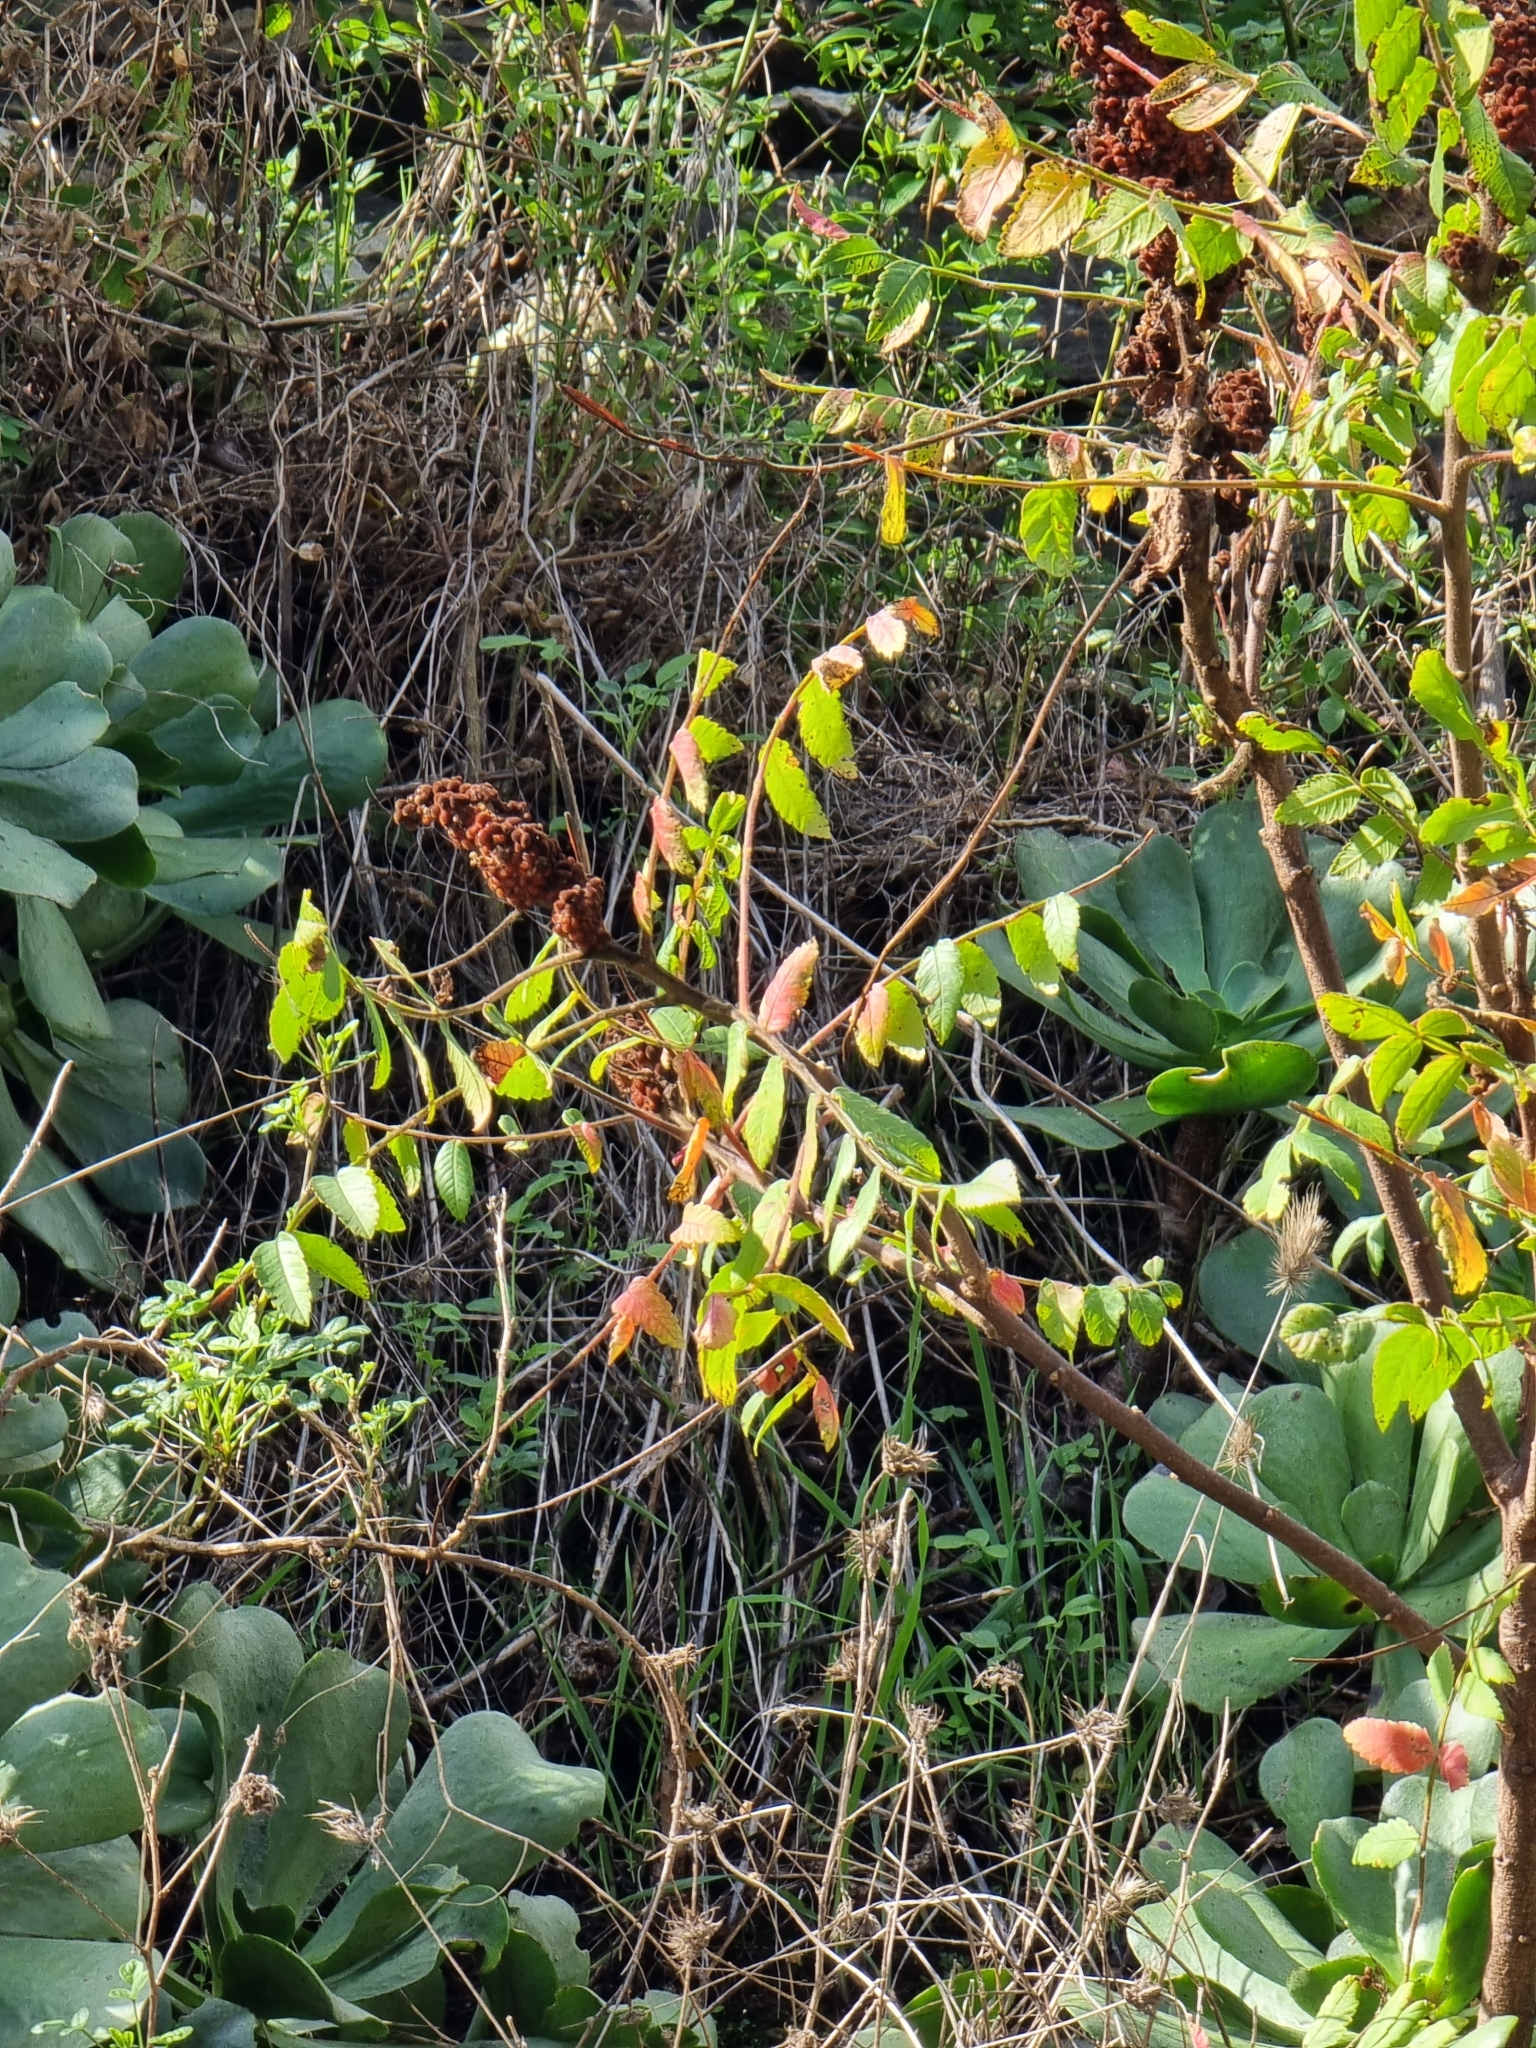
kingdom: Plantae
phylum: Tracheophyta
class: Magnoliopsida
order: Sapindales
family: Anacardiaceae
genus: Rhus
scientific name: Rhus coriaria
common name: Tanner's sumach
